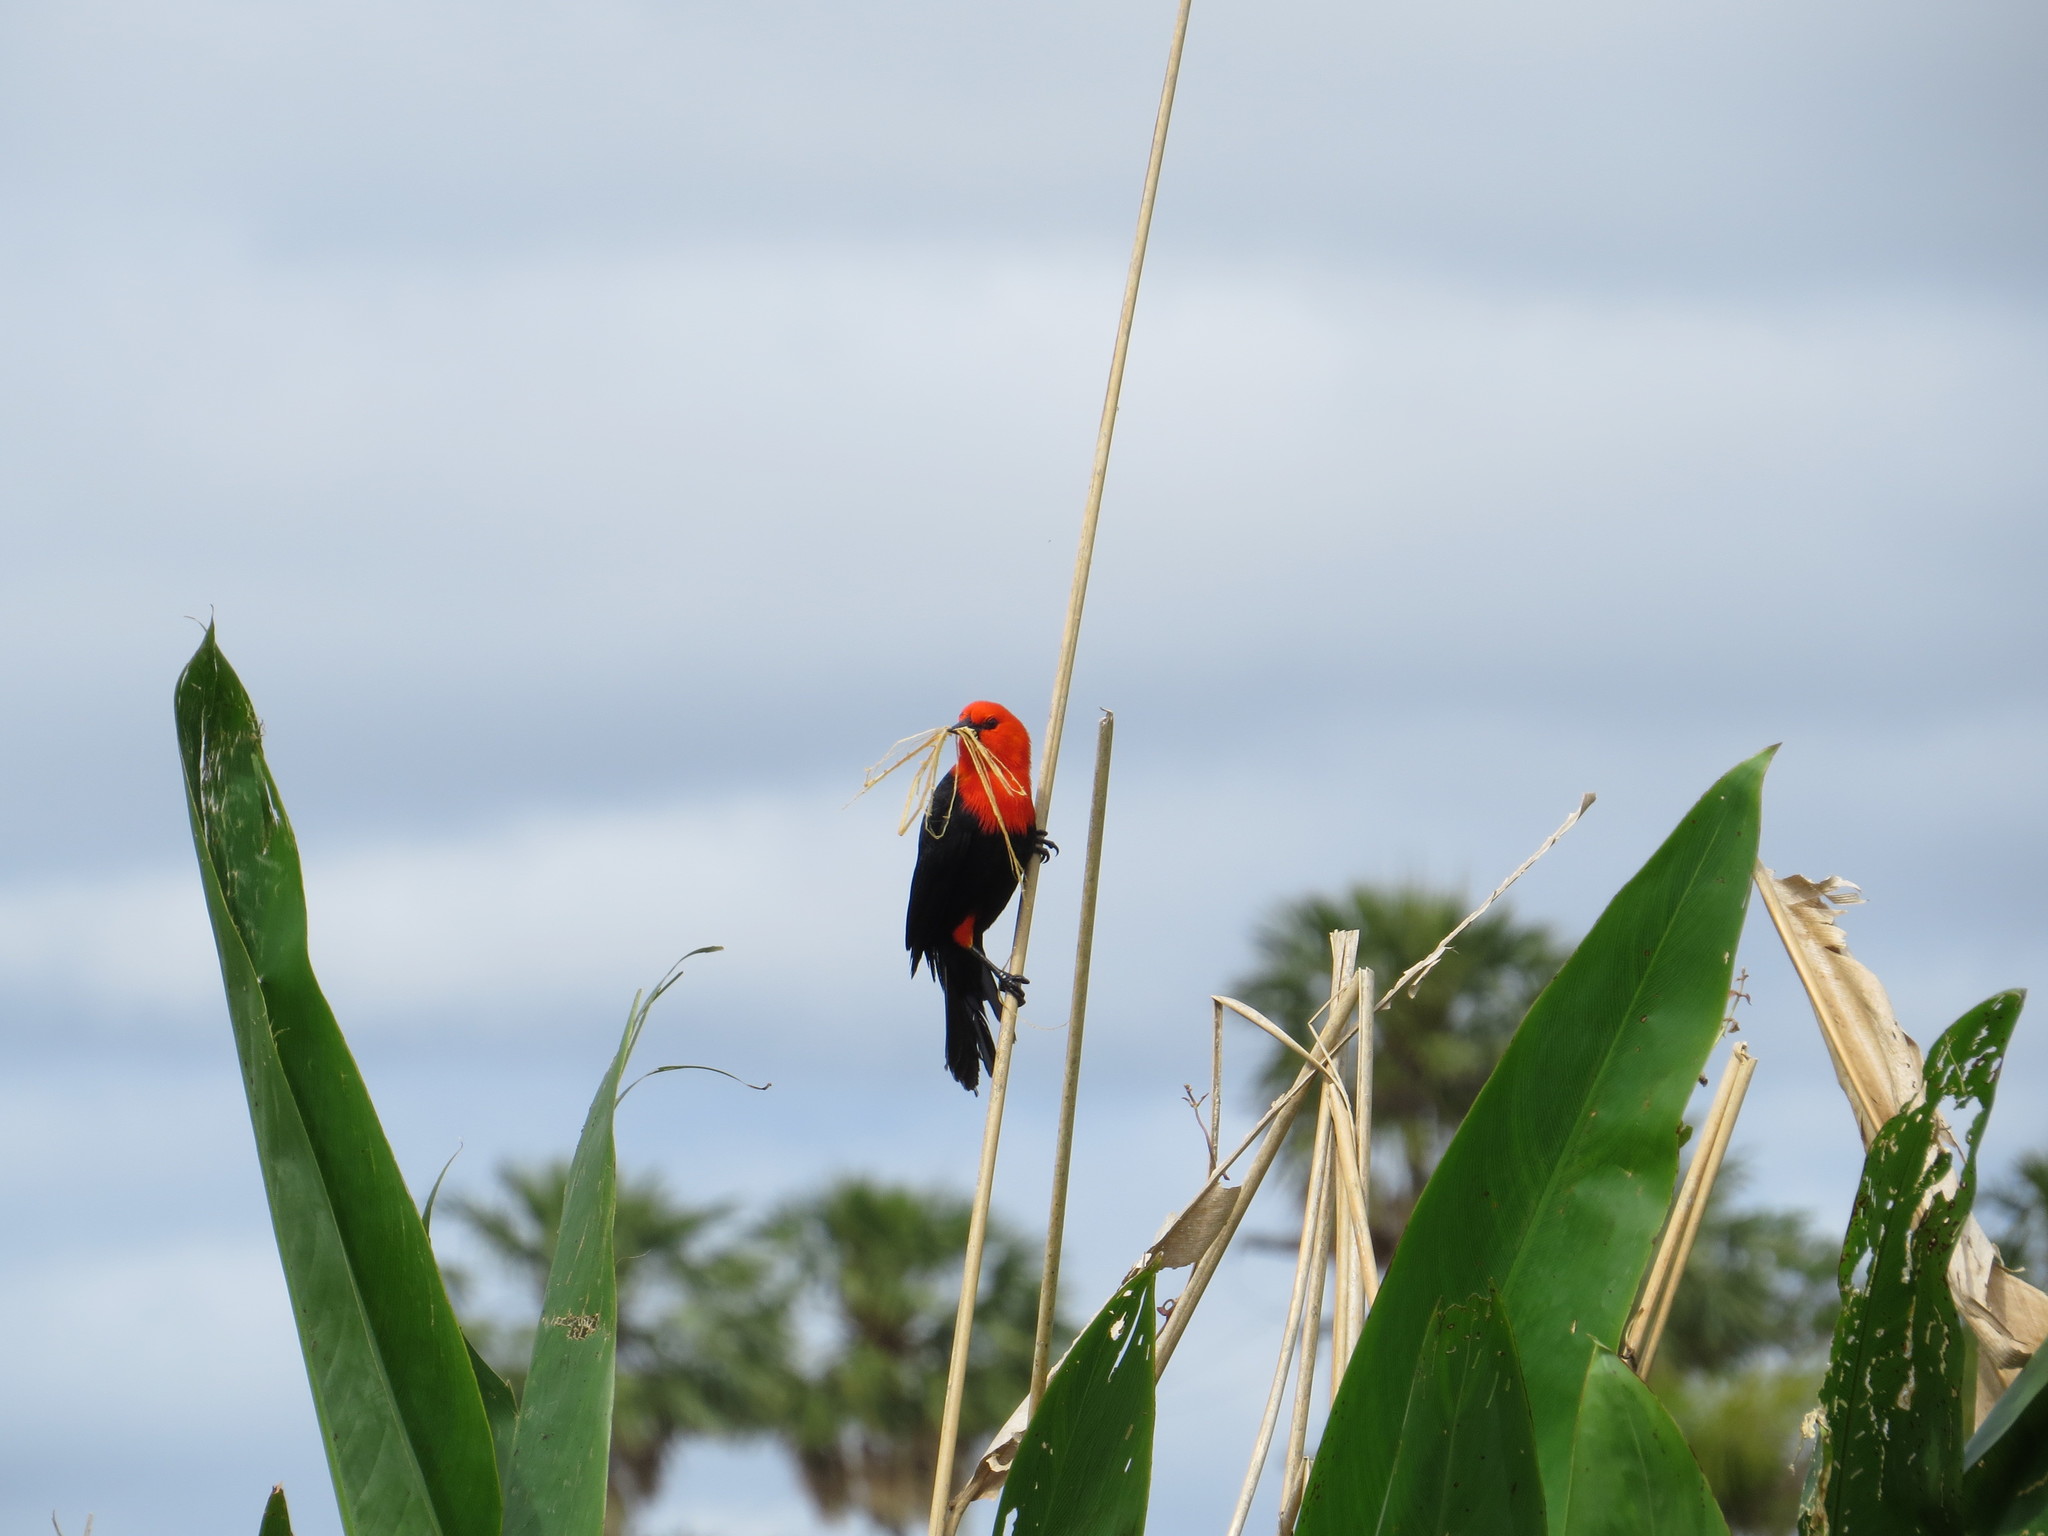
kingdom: Animalia
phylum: Chordata
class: Aves
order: Passeriformes
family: Icteridae
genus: Amblyramphus
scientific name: Amblyramphus holosericeus
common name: Scarlet-headed blackbird
